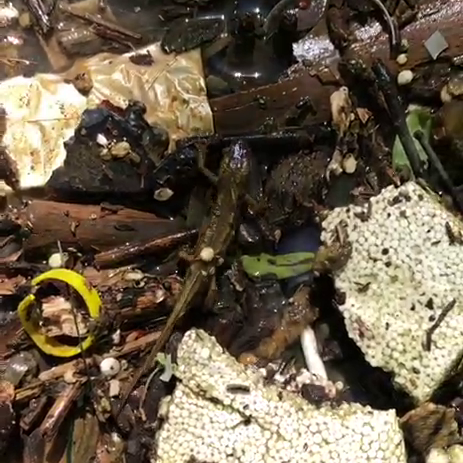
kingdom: Animalia
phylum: Chordata
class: Amphibia
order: Caudata
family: Salamandridae
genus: Lissotriton
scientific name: Lissotriton montandoni
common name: Carpathian newt
